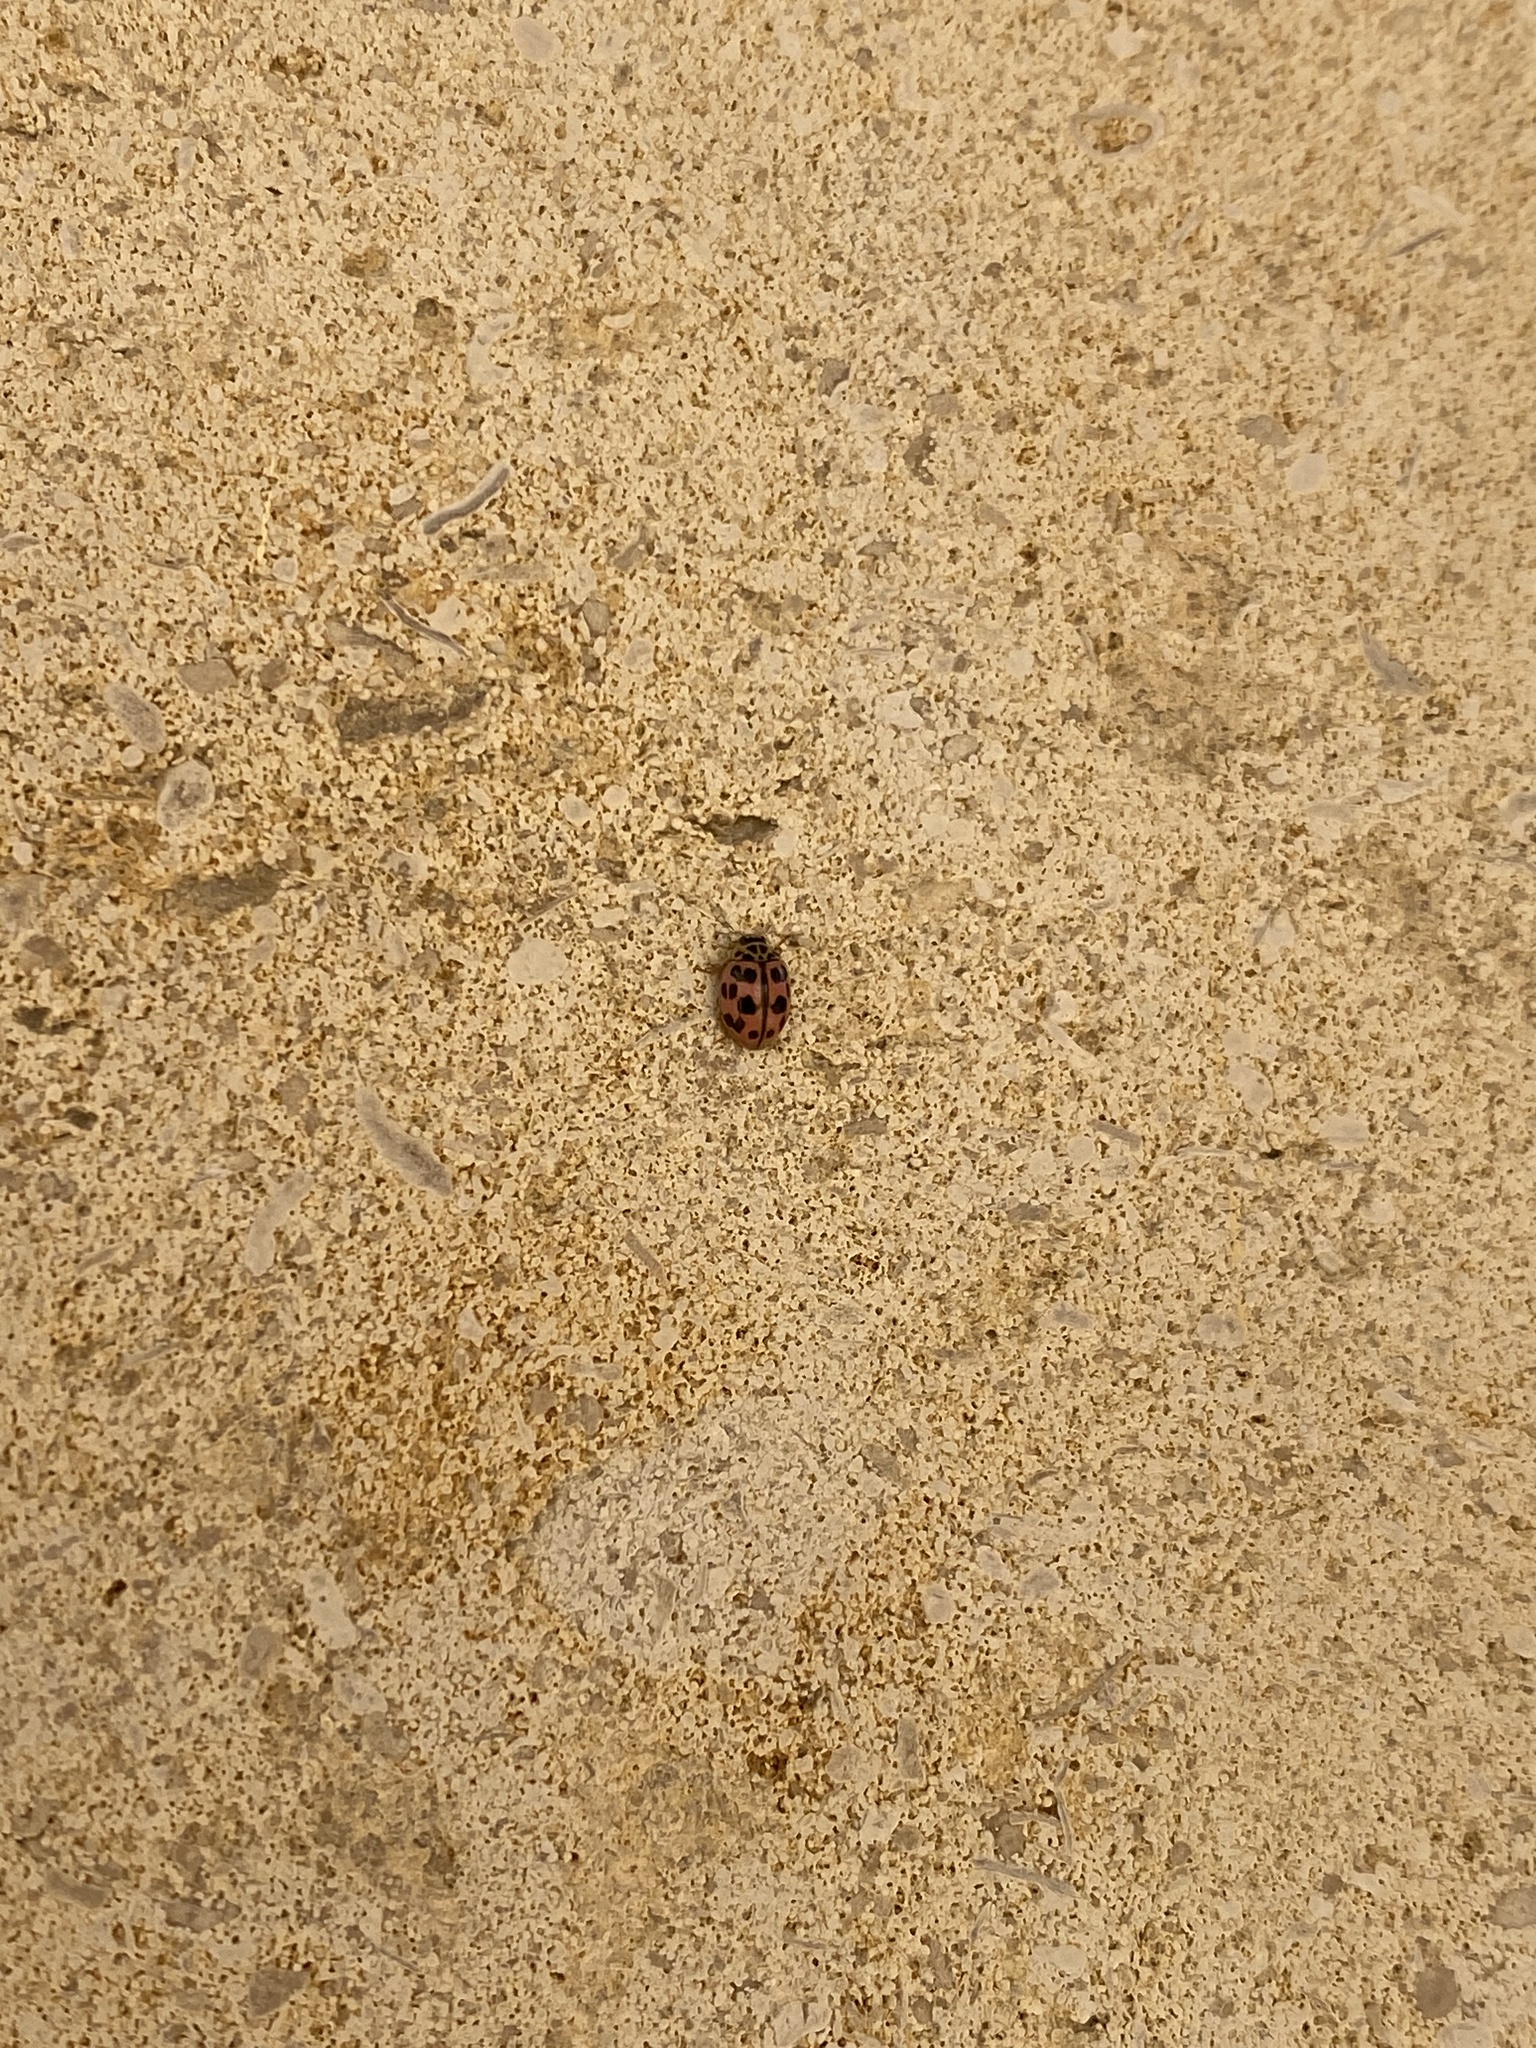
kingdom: Animalia
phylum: Arthropoda
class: Insecta
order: Coleoptera
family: Coccinellidae
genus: Oenopia
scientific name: Oenopia conglobata
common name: Ladybird beetle
